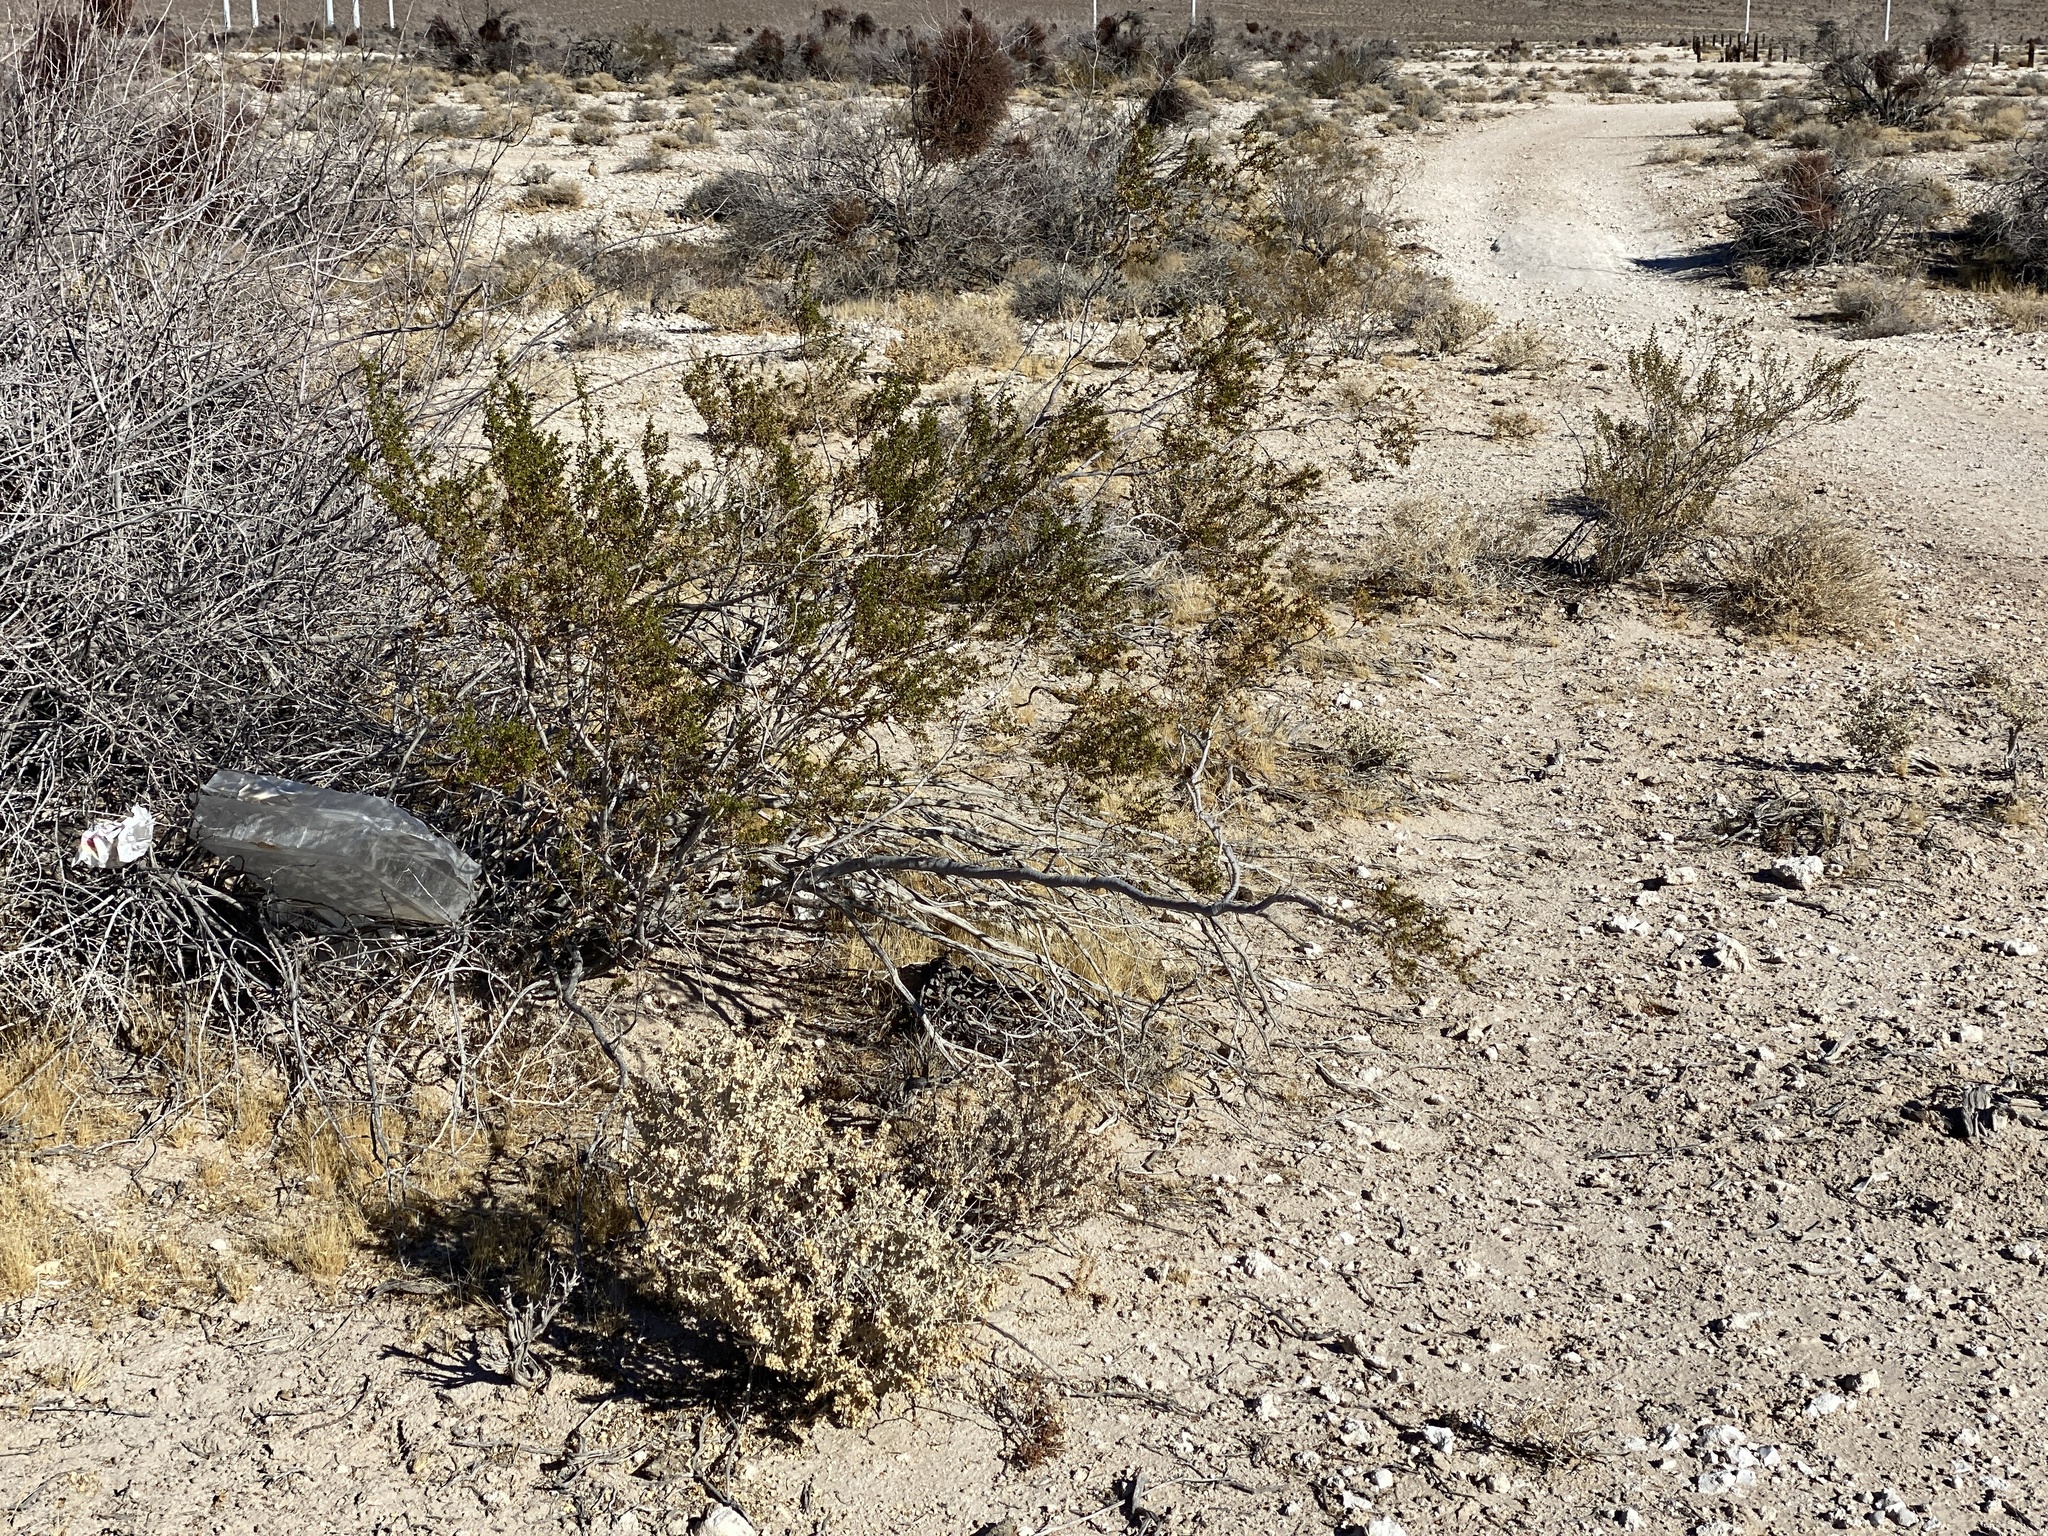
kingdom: Plantae
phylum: Tracheophyta
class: Magnoliopsida
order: Zygophyllales
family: Zygophyllaceae
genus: Larrea
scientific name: Larrea tridentata
